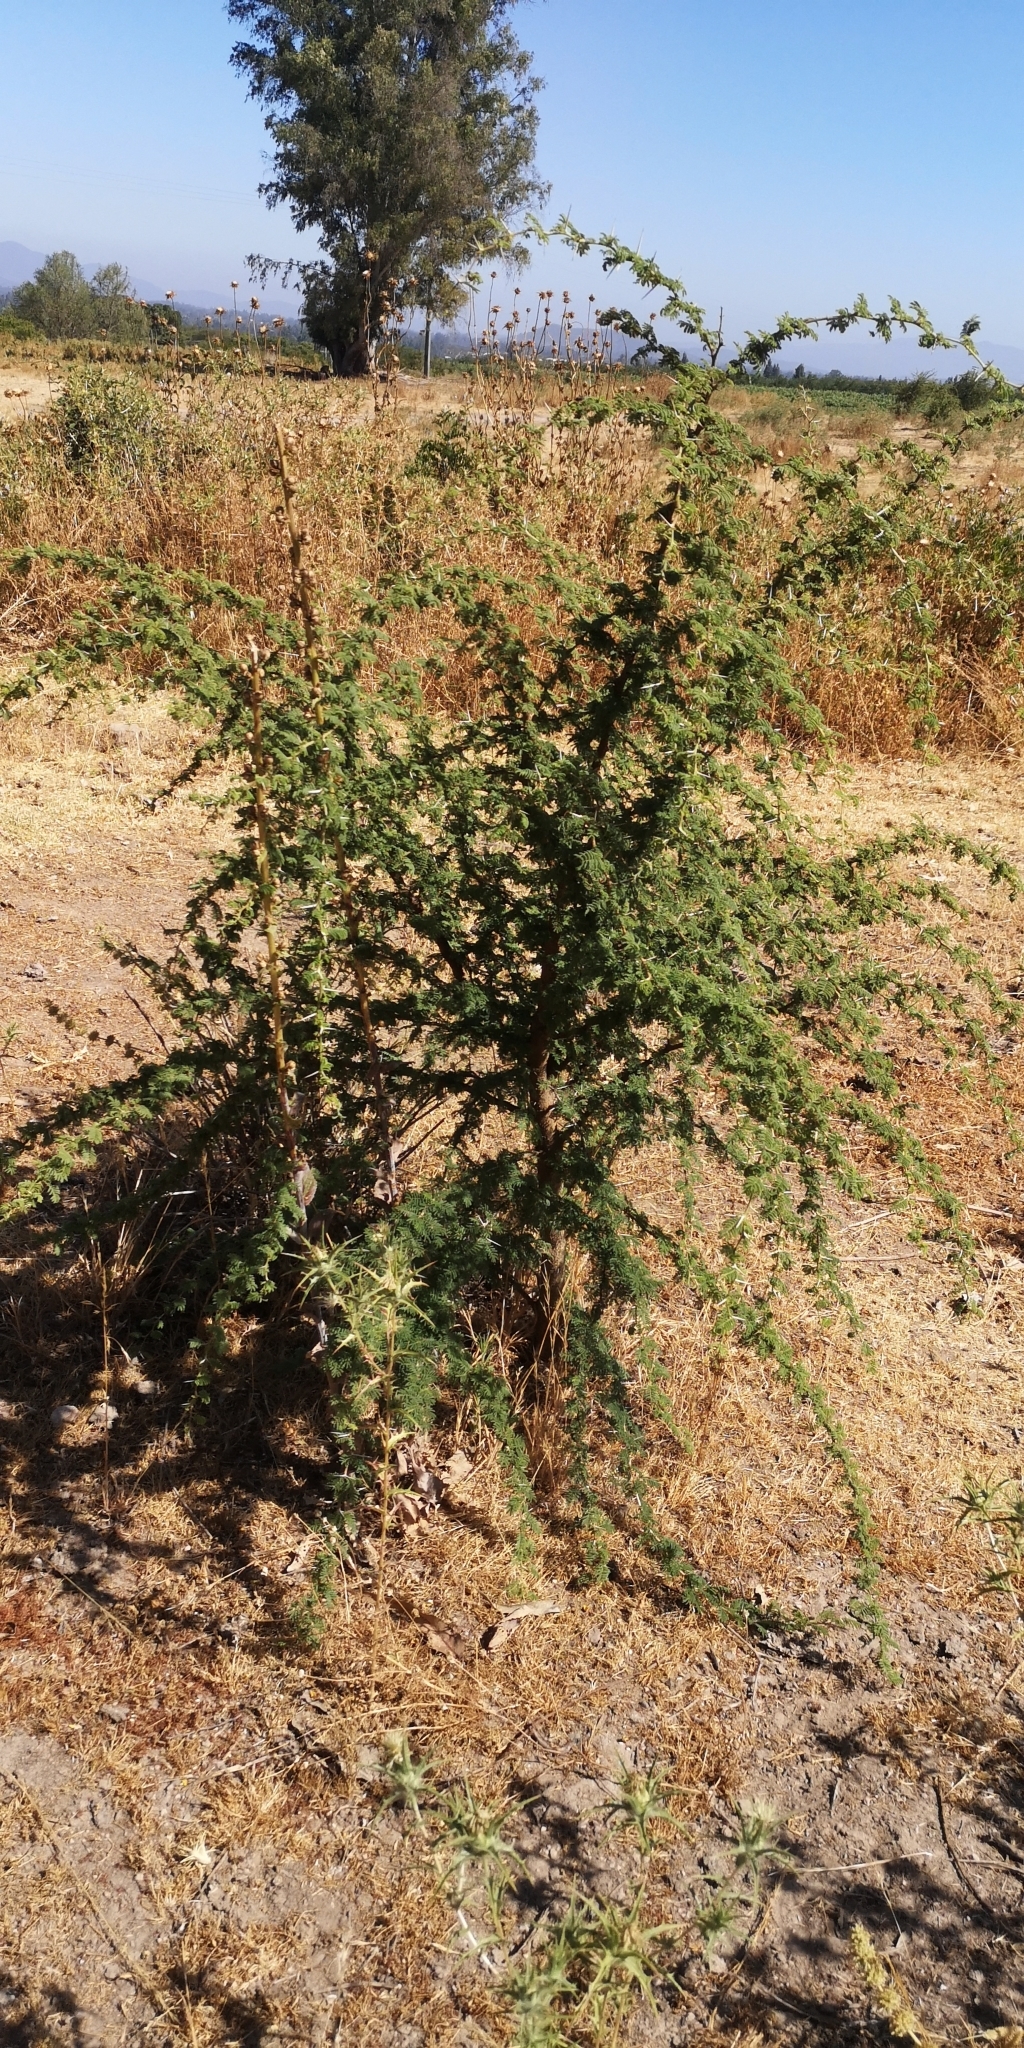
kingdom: Plantae
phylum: Tracheophyta
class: Magnoliopsida
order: Fabales
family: Fabaceae
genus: Vachellia
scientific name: Vachellia caven
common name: Roman cassie
